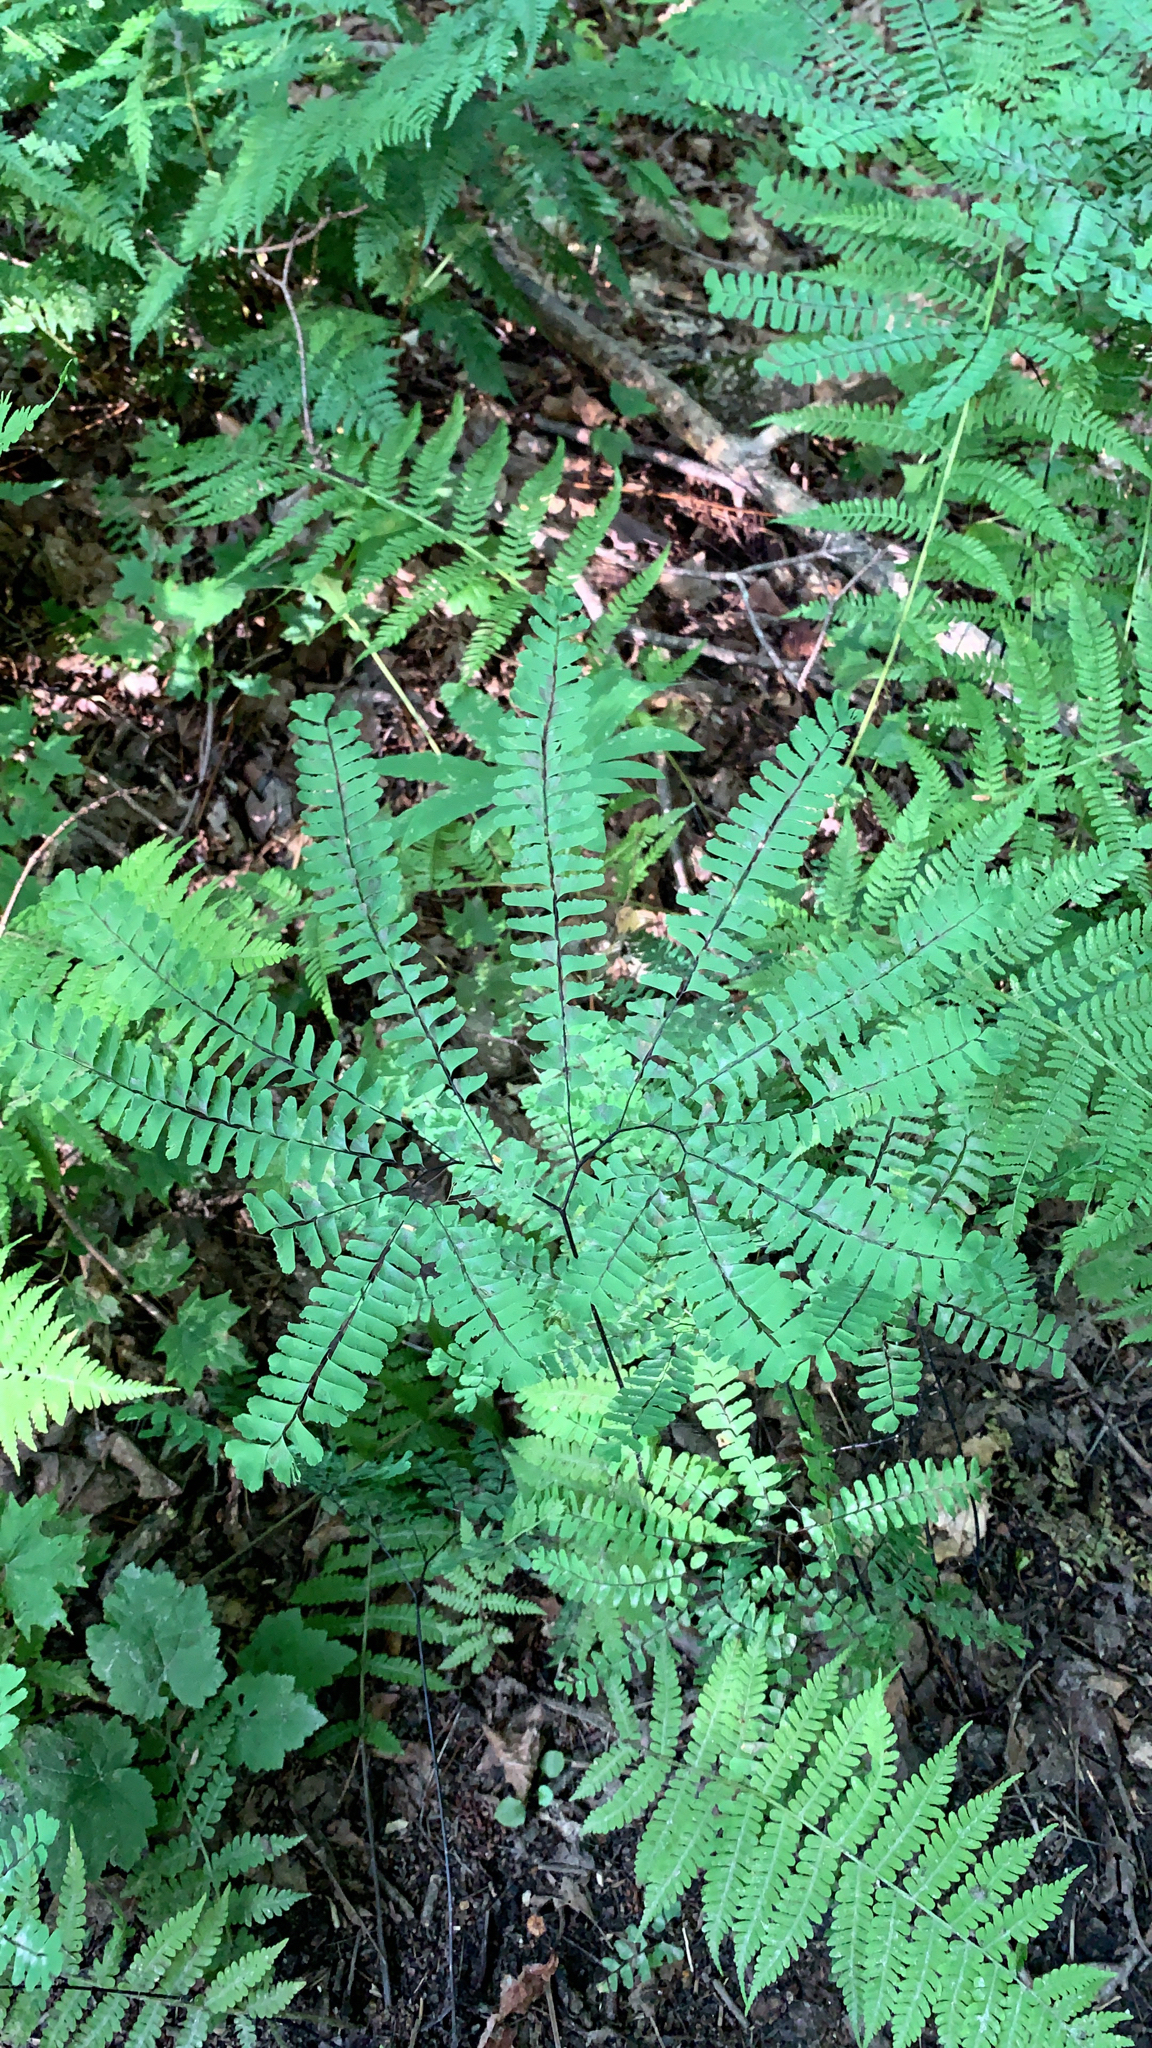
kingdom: Plantae
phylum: Tracheophyta
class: Polypodiopsida
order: Polypodiales
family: Pteridaceae
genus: Adiantum
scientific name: Adiantum pedatum
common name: Five-finger fern
